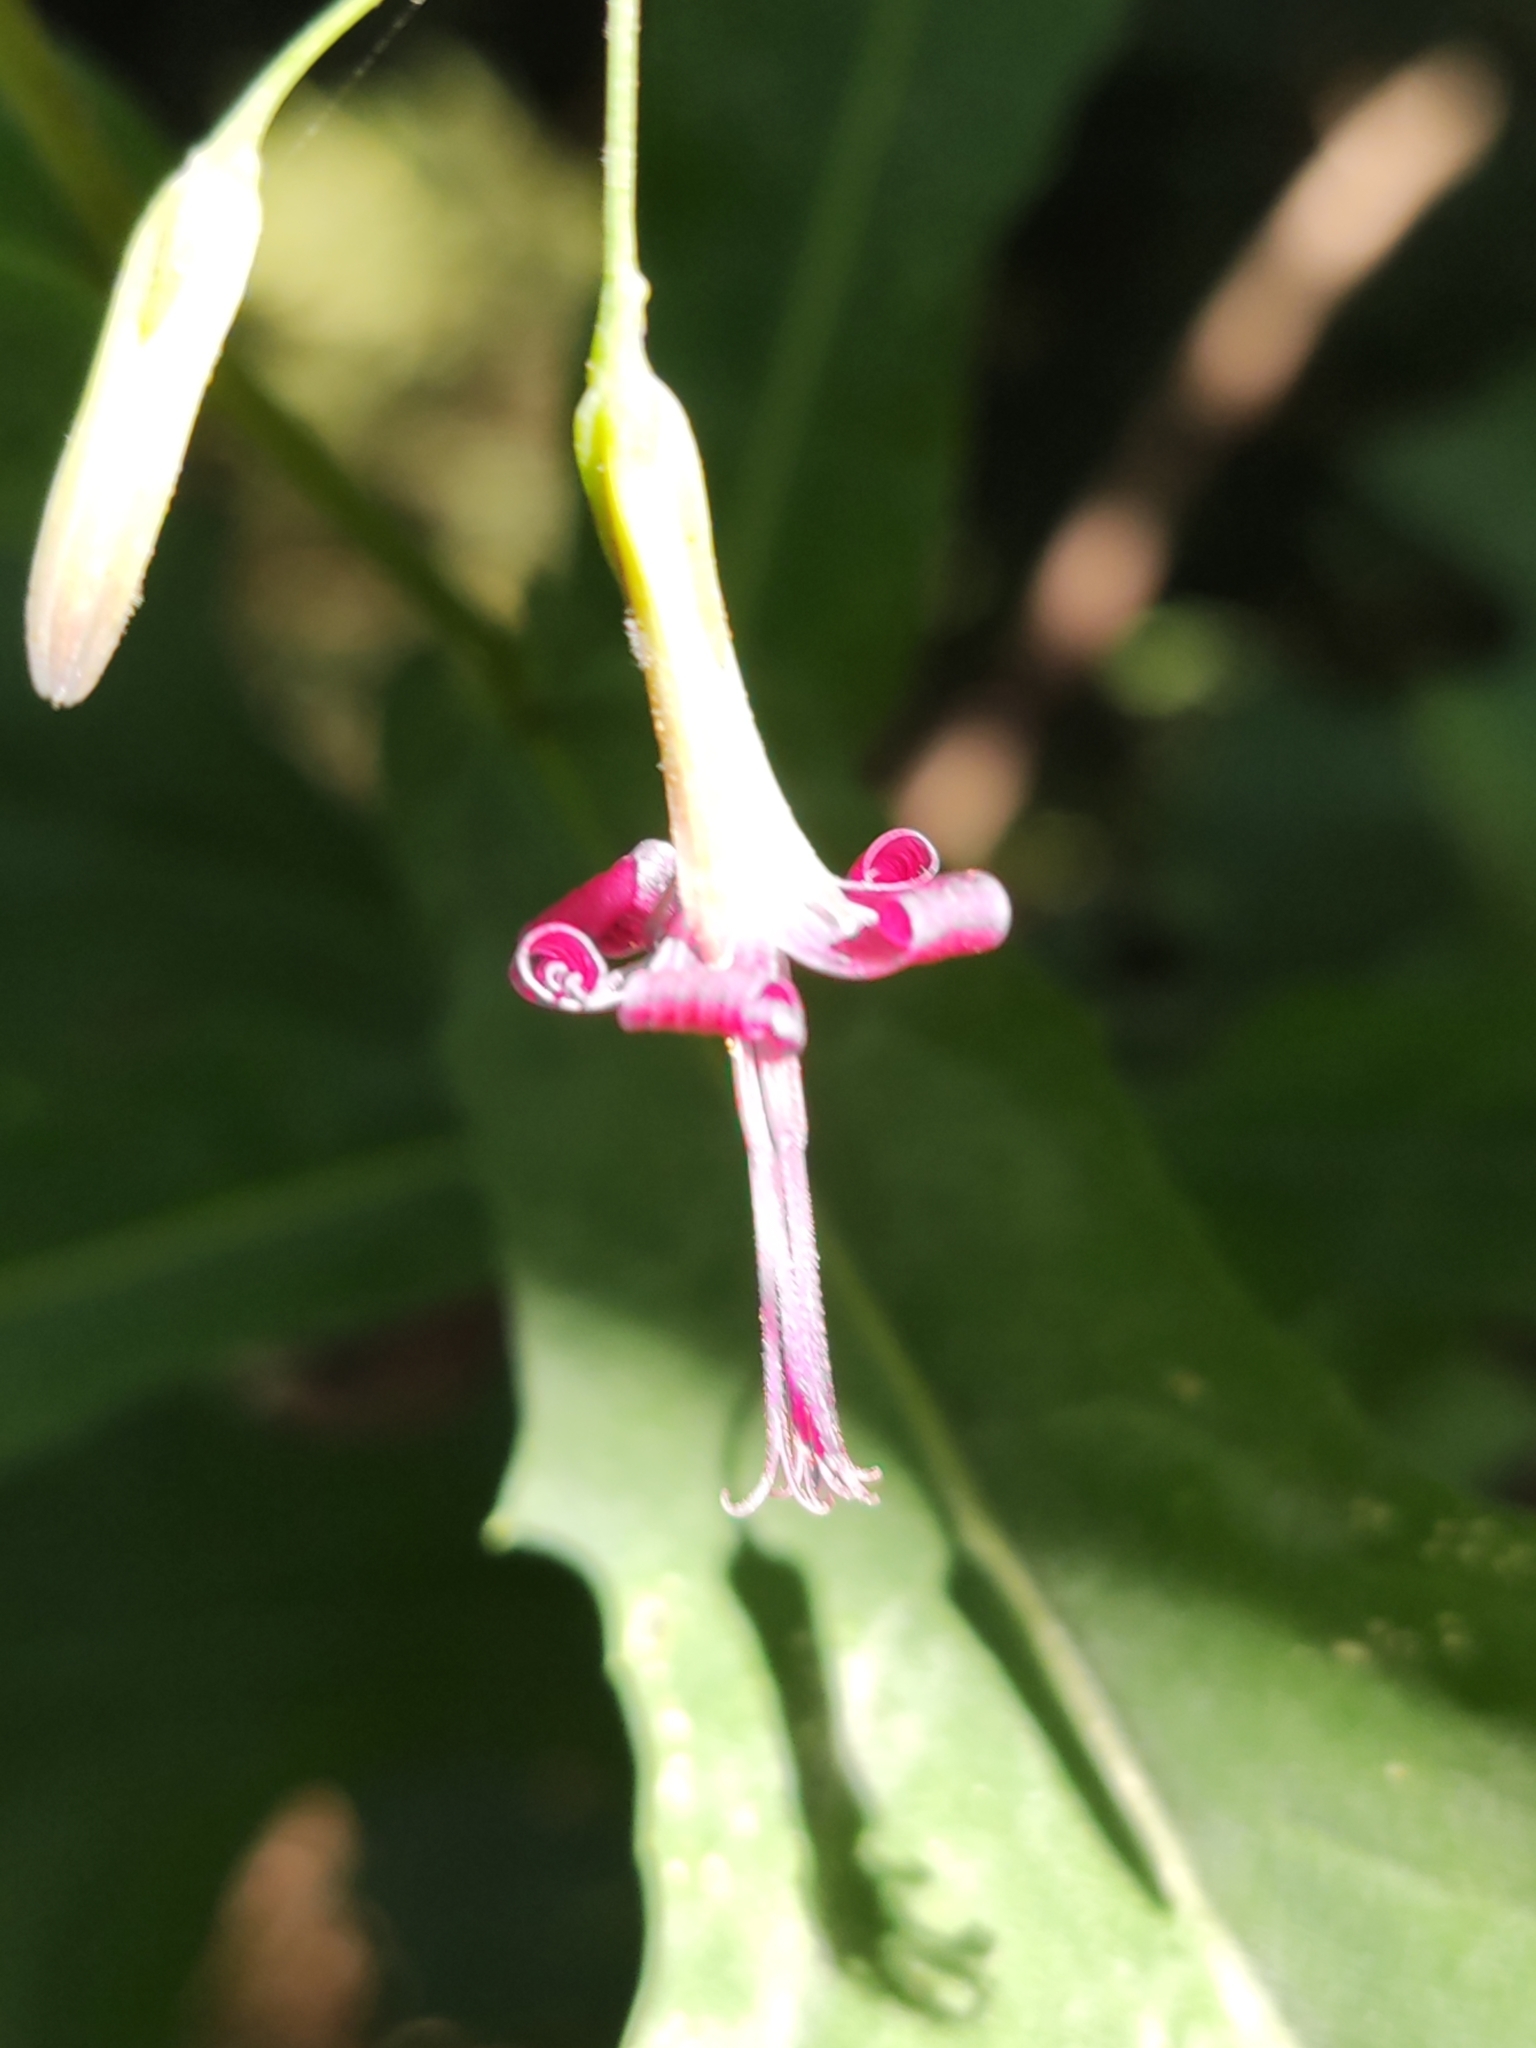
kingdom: Plantae
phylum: Tracheophyta
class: Magnoliopsida
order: Asterales
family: Asteraceae
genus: Prenanthes
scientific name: Prenanthes purpurea
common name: Purple lettuce
